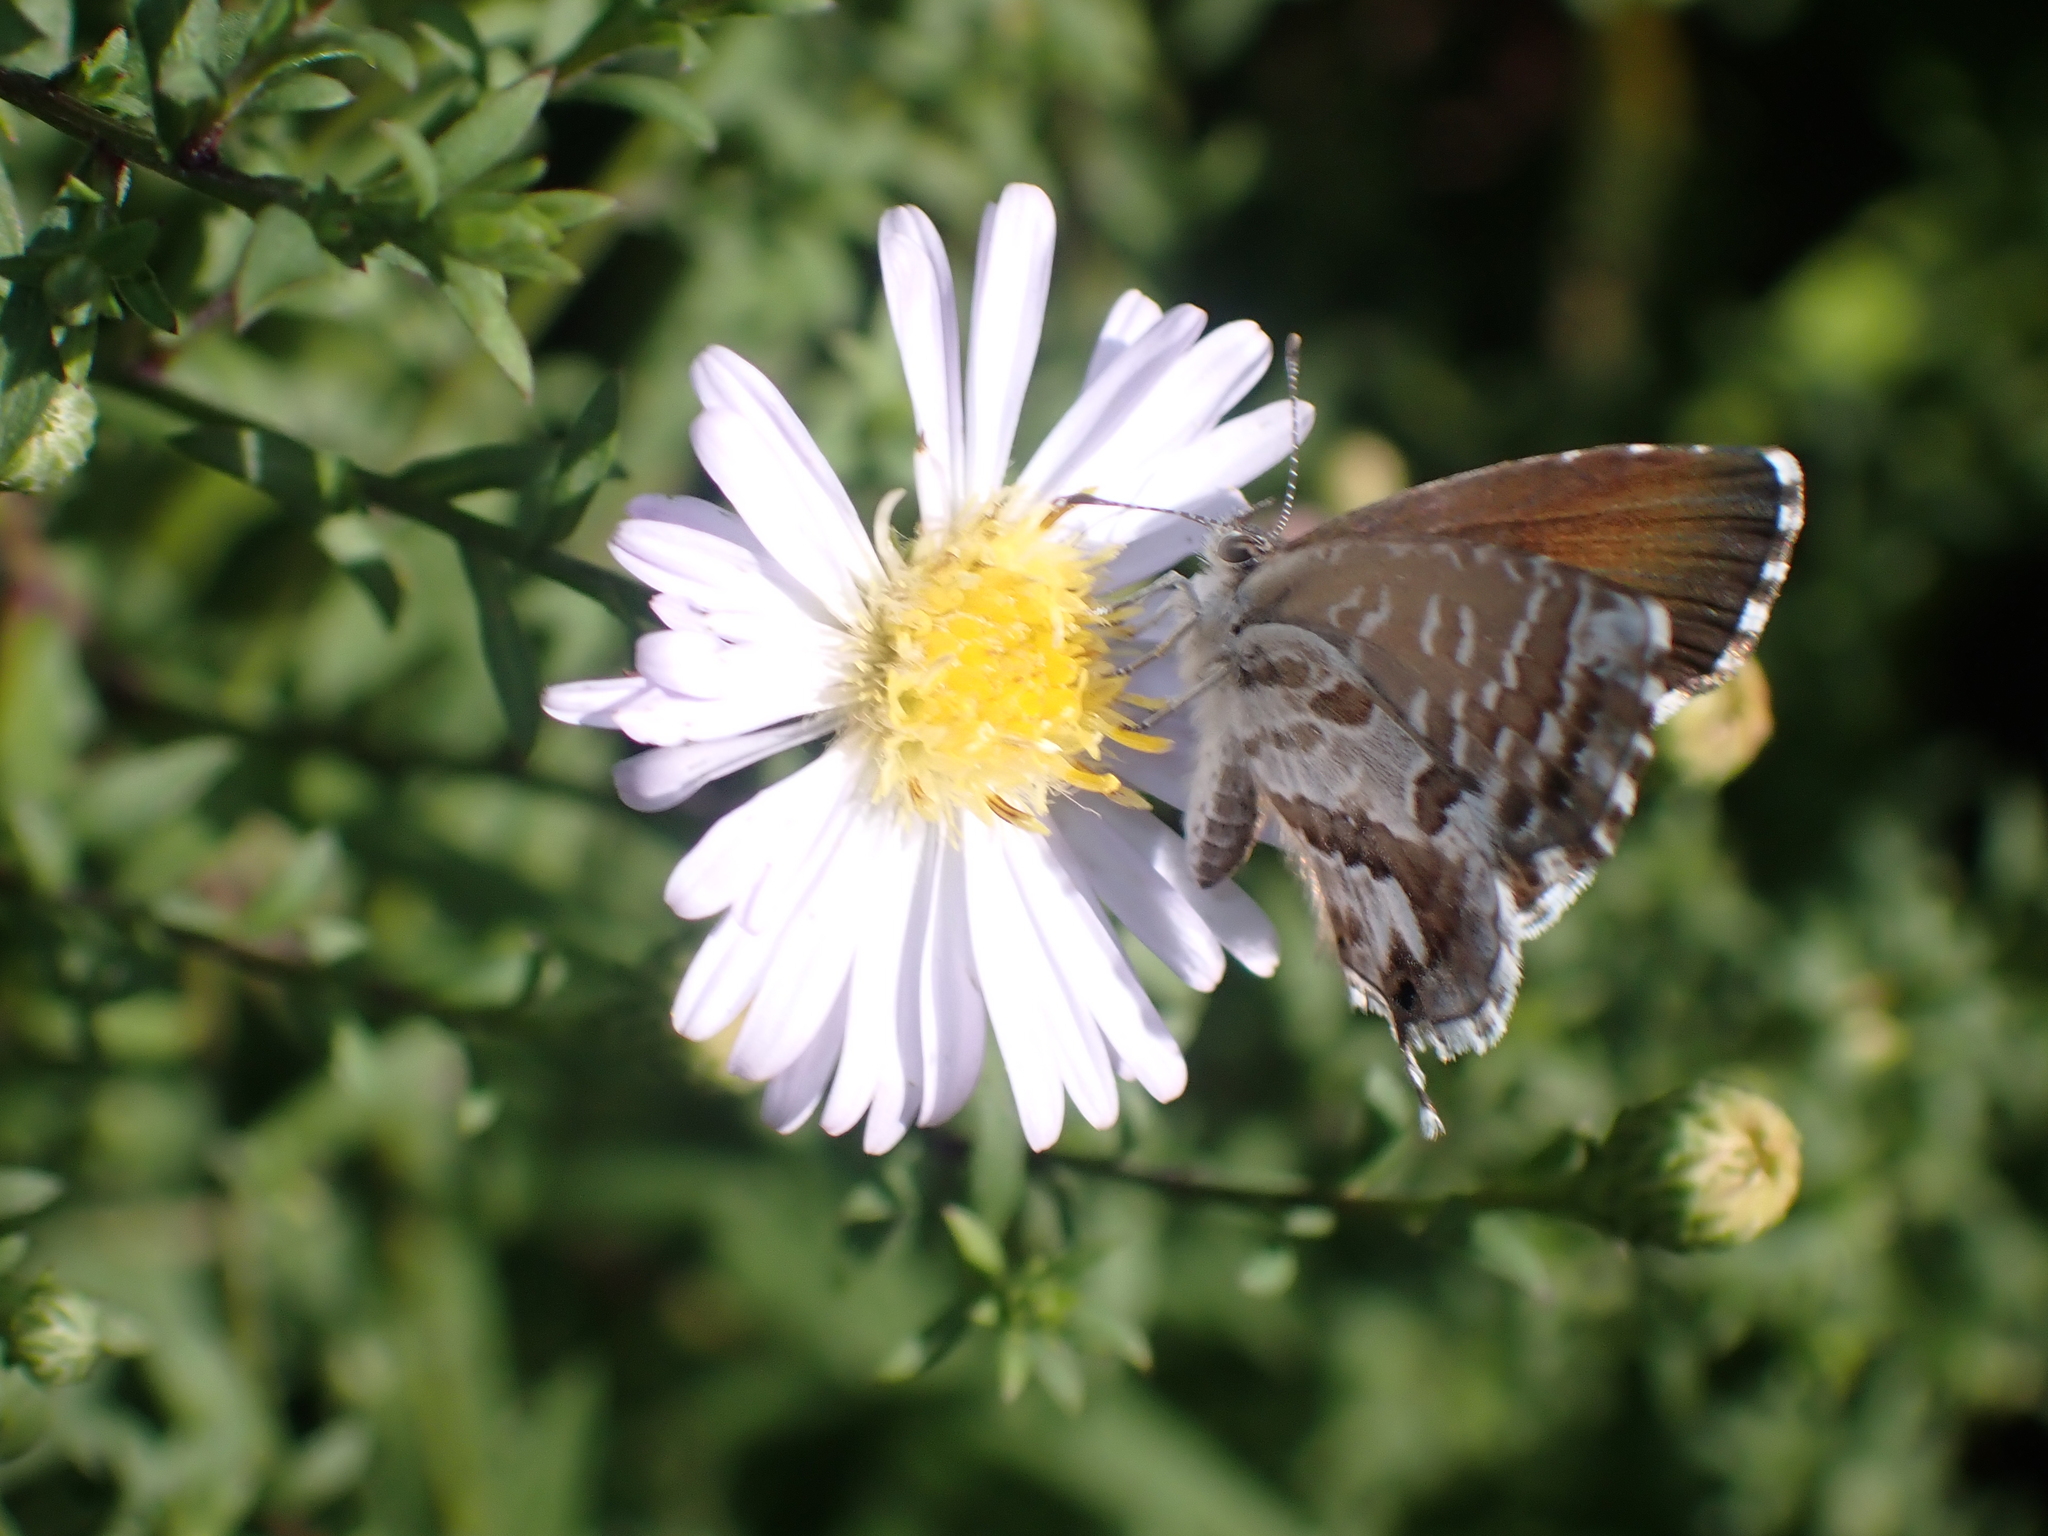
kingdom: Animalia
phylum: Arthropoda
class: Insecta
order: Lepidoptera
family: Lycaenidae
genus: Cacyreus
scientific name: Cacyreus marshalli
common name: Geranium bronze
